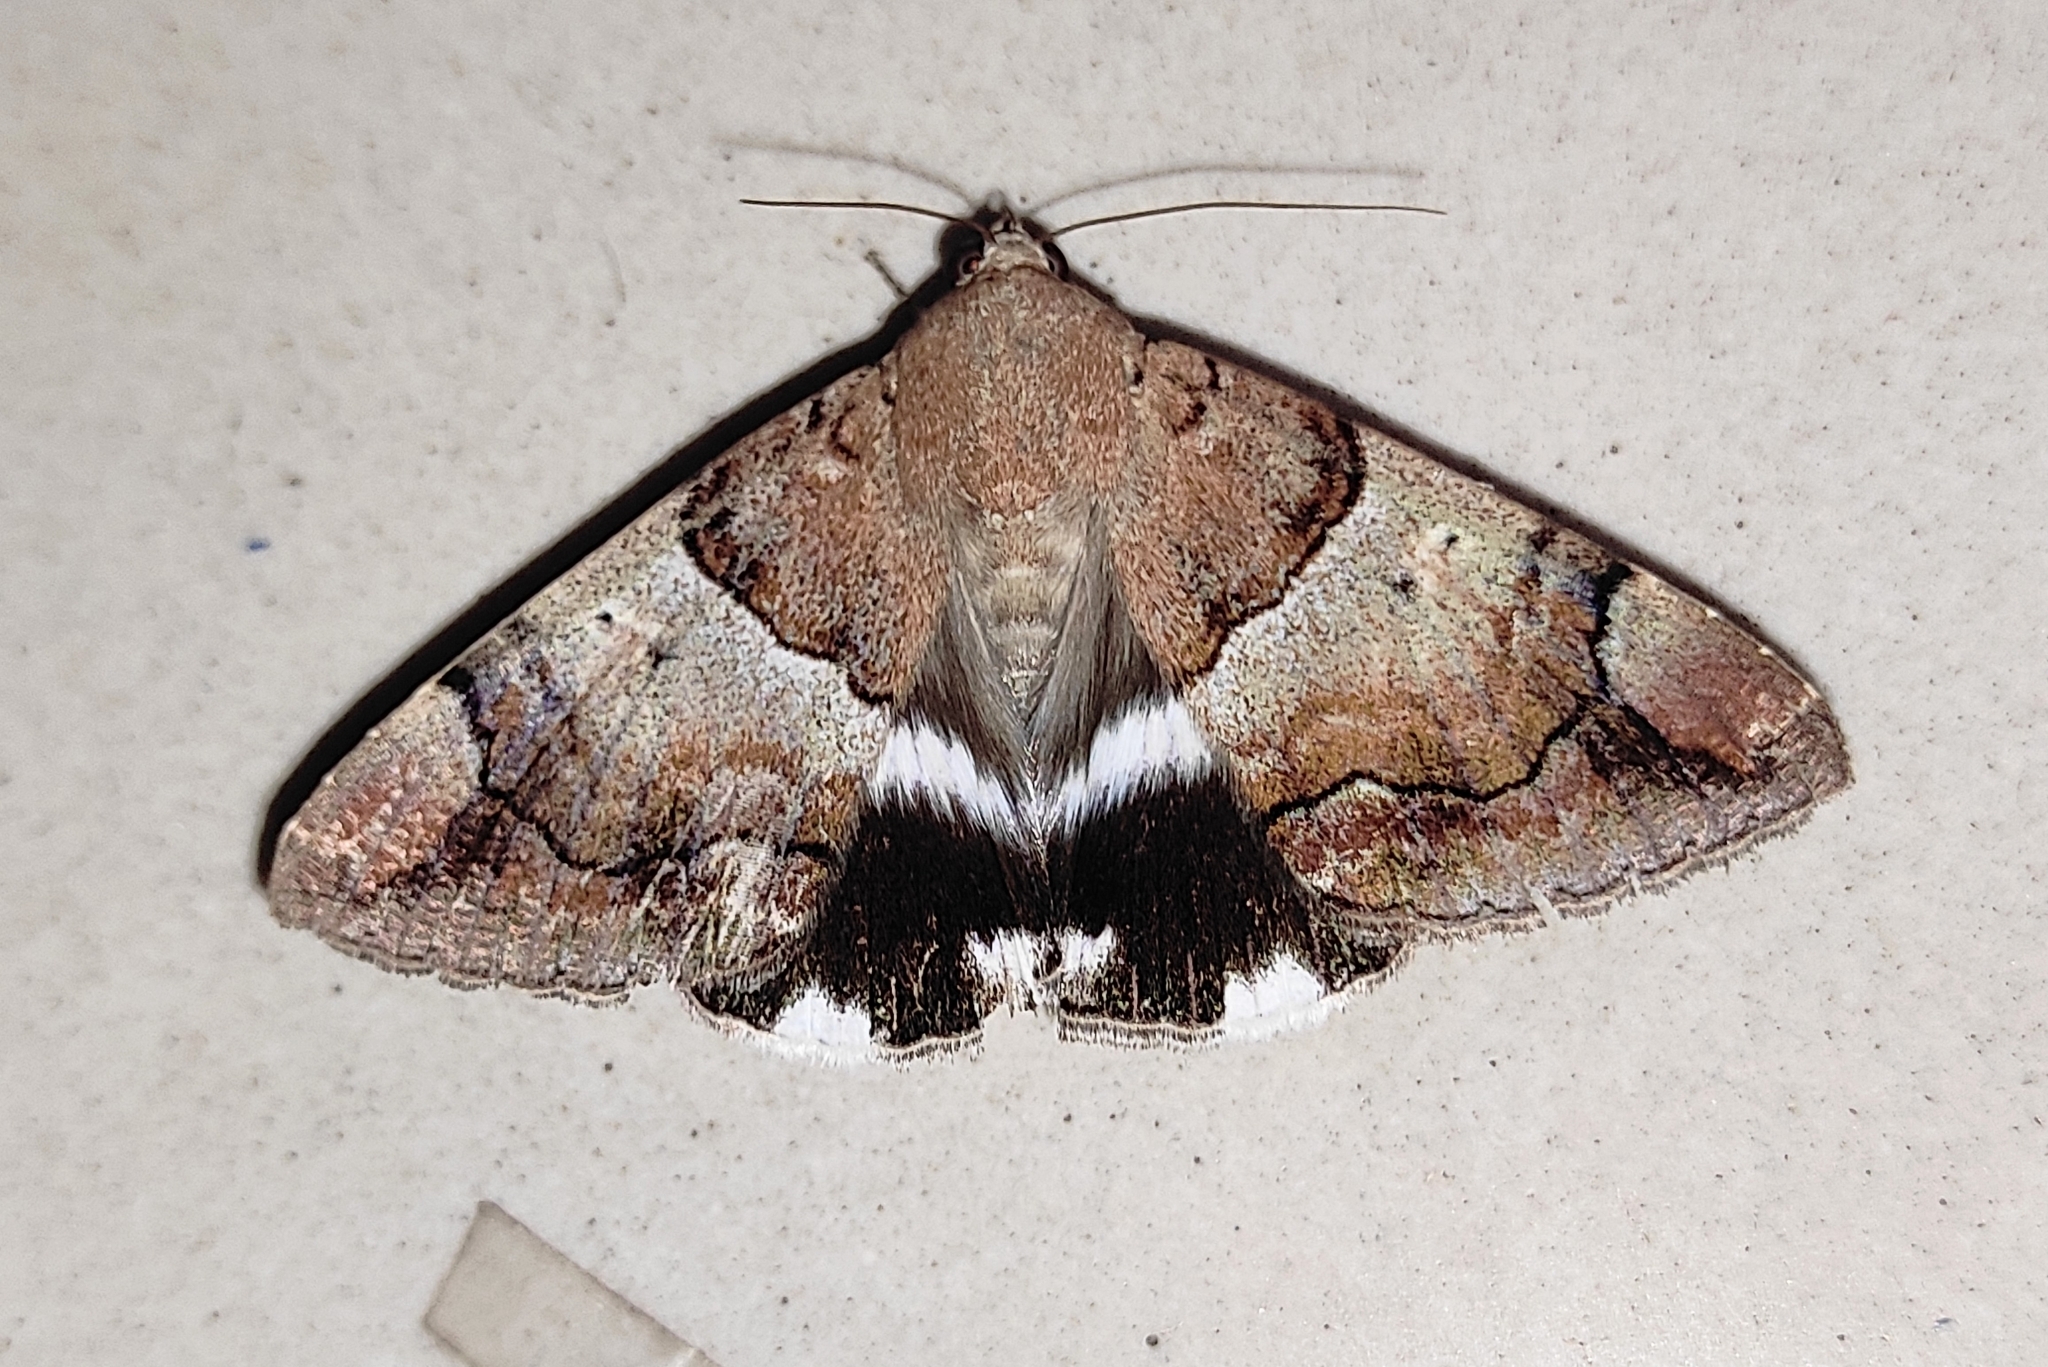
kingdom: Animalia
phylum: Arthropoda
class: Insecta
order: Lepidoptera
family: Erebidae
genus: Achaea
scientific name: Achaea janata
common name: Croton caterpillar
